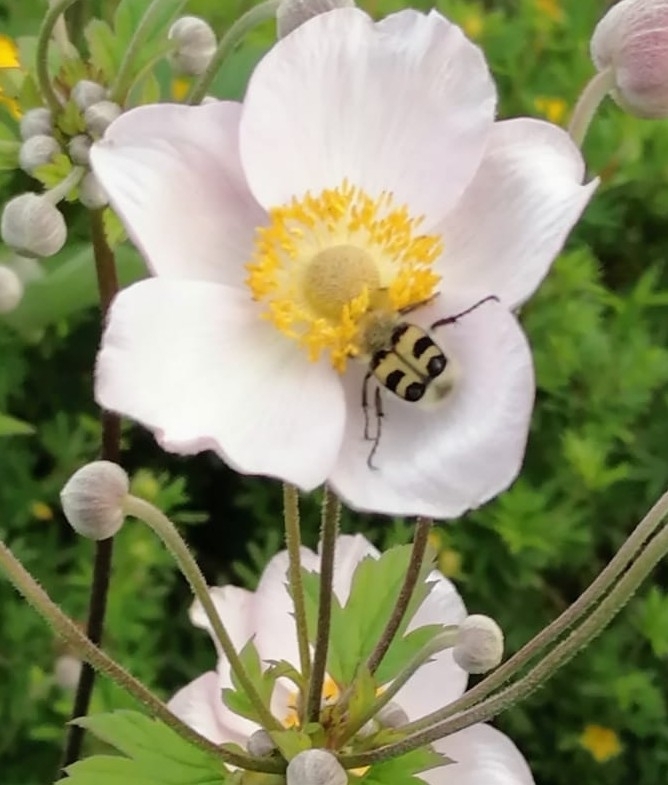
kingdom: Animalia
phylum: Arthropoda
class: Insecta
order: Coleoptera
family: Scarabaeidae
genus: Trichius
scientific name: Trichius fasciatus
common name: Bee beetle
